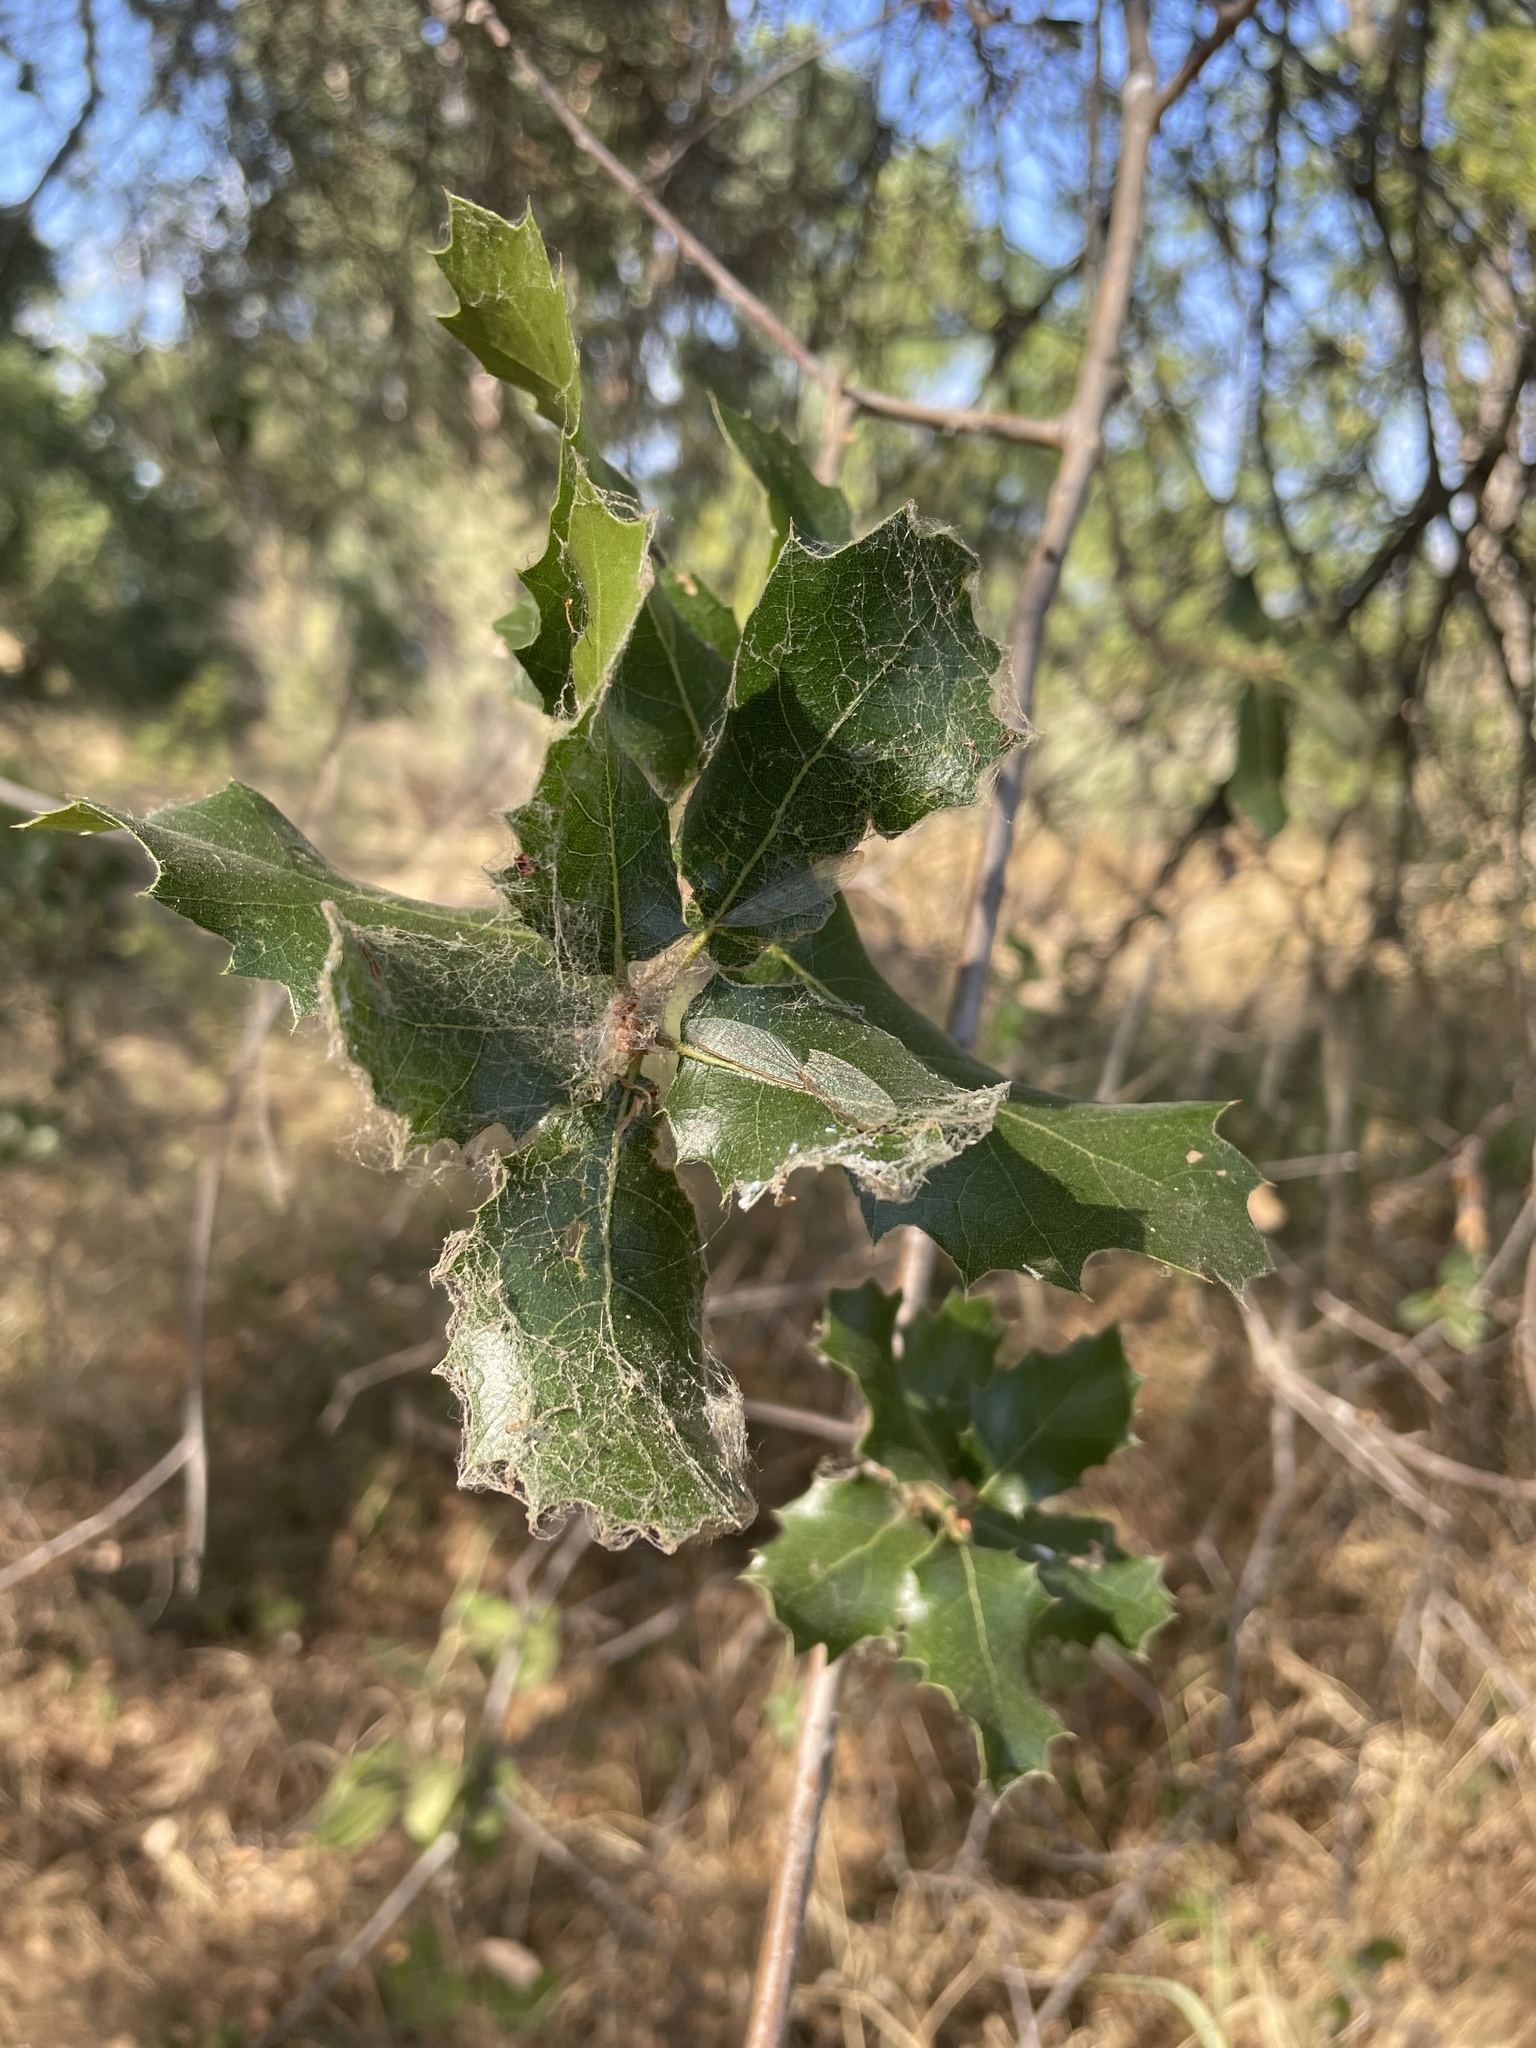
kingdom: Plantae
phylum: Tracheophyta
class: Magnoliopsida
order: Fagales
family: Fagaceae
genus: Quercus
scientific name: Quercus wislizeni
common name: Interior live oak
